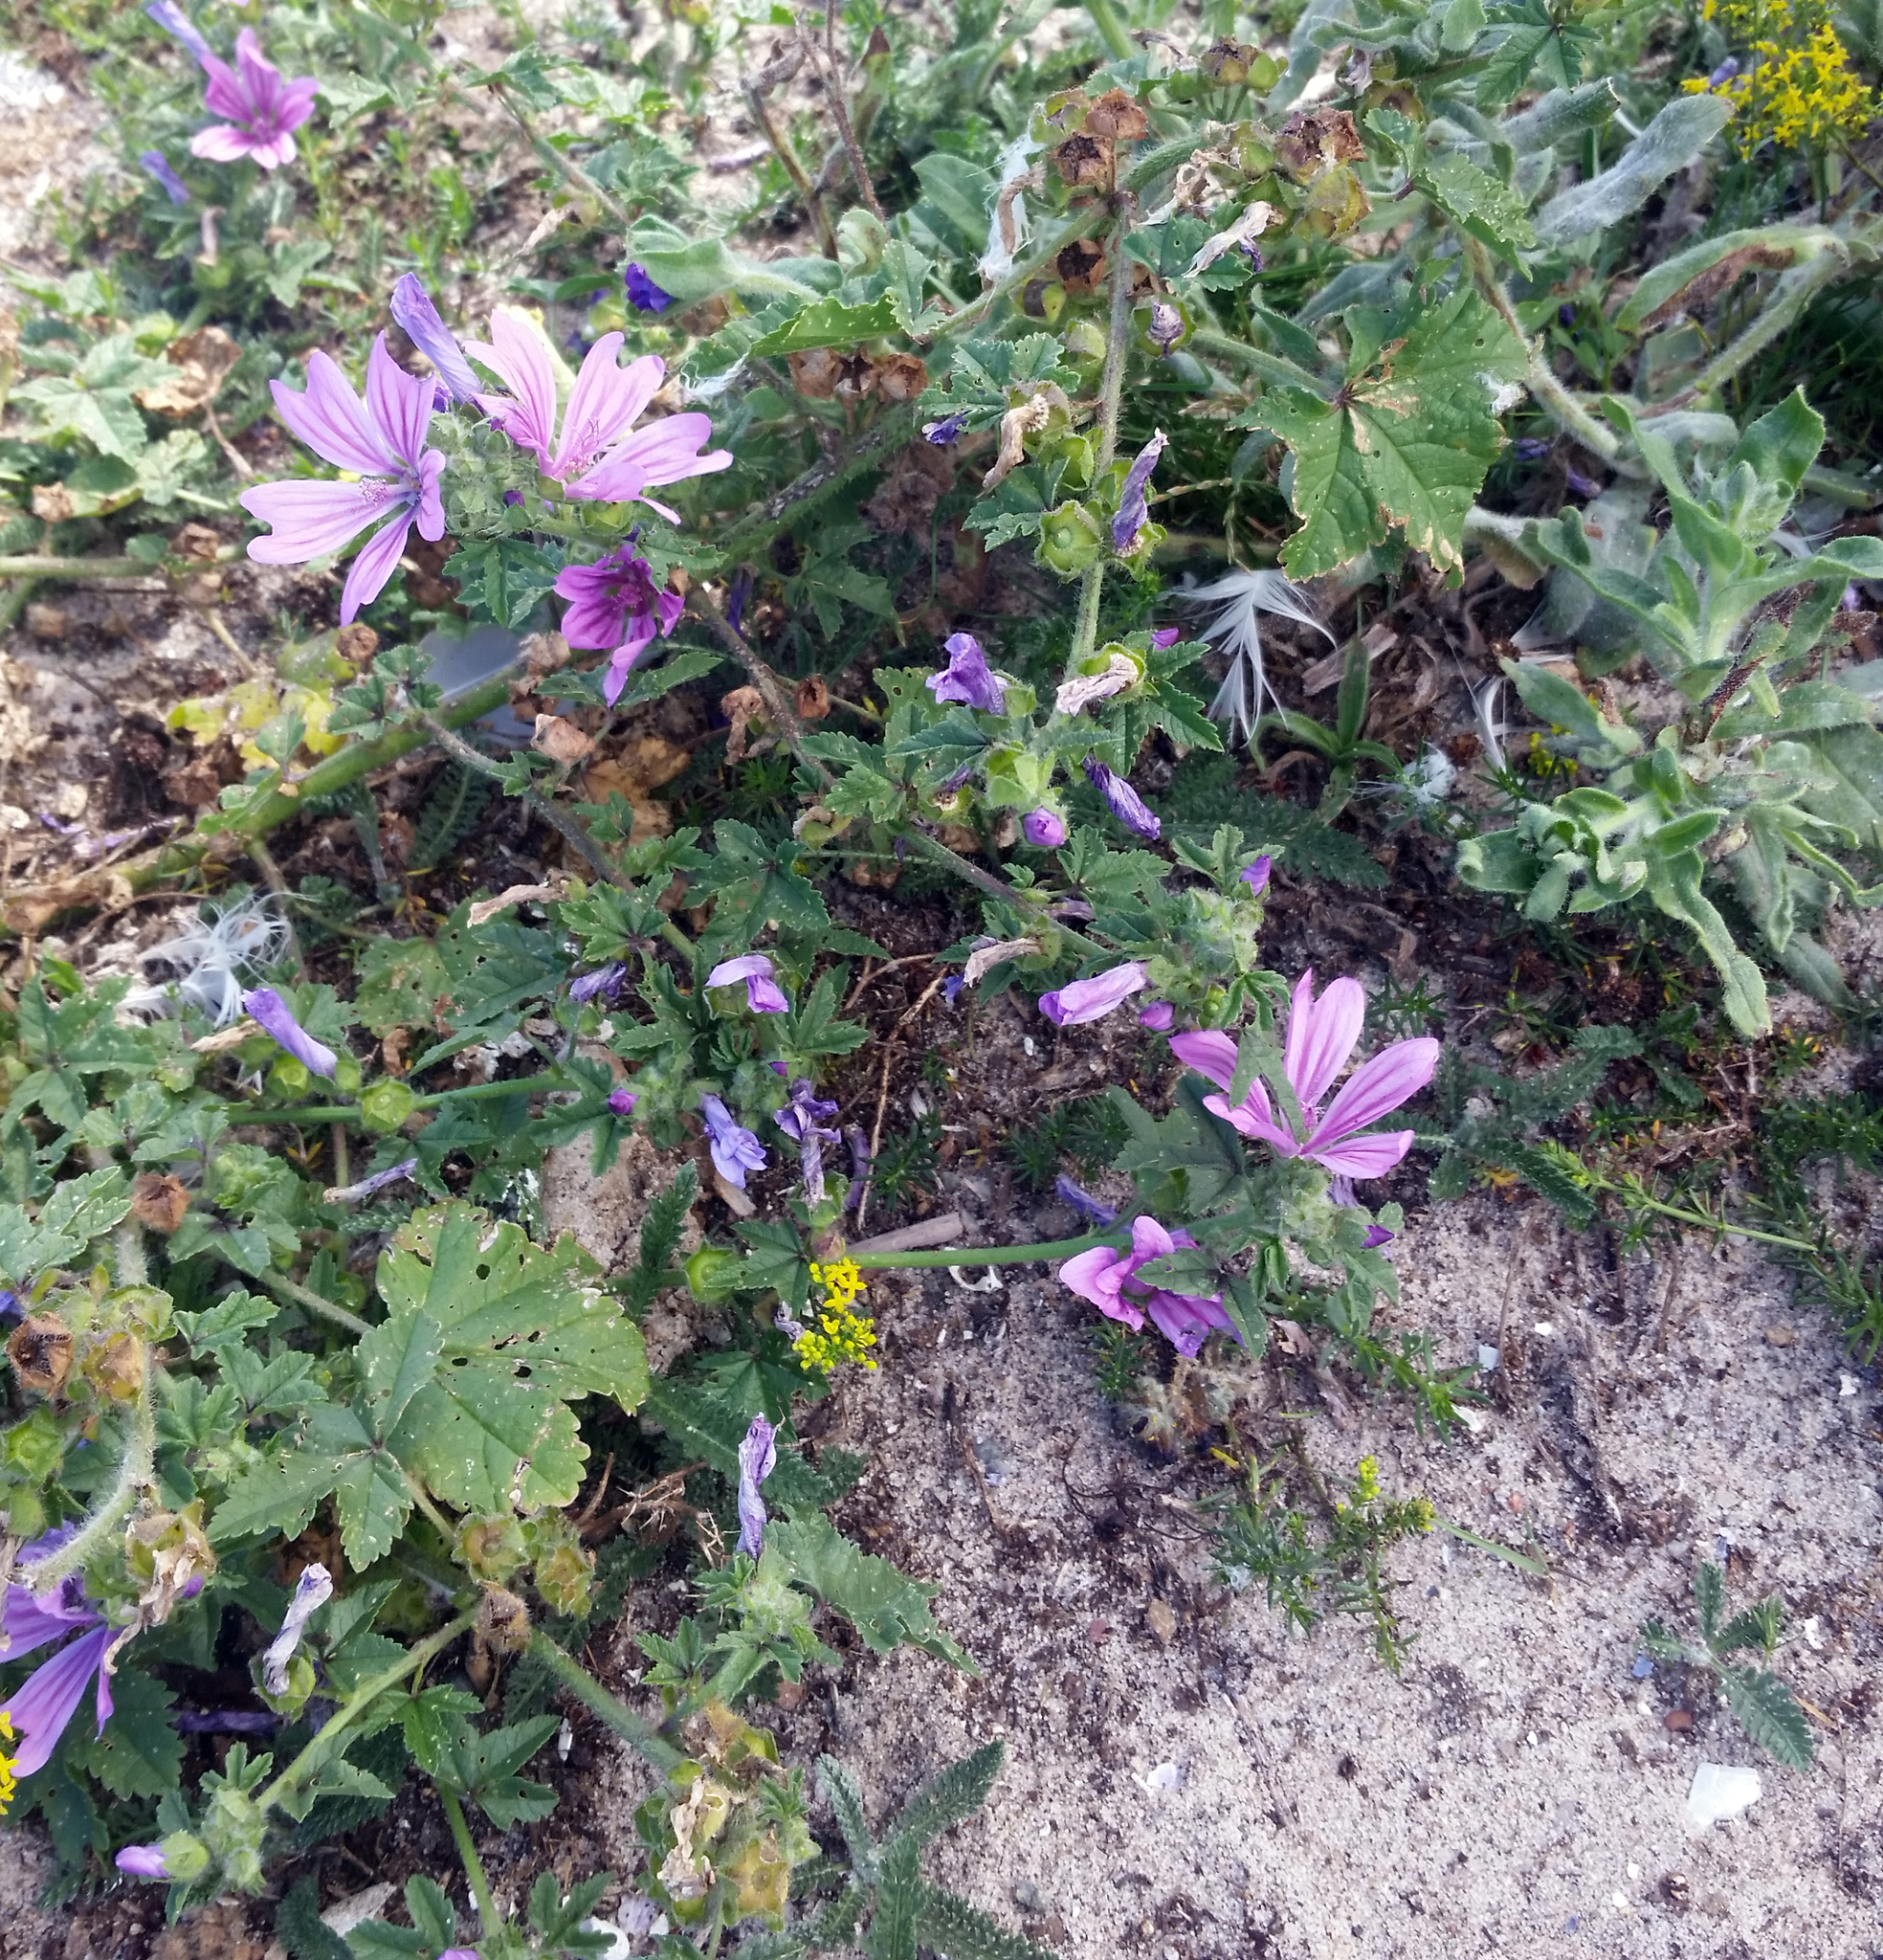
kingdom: Plantae
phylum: Tracheophyta
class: Magnoliopsida
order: Malvales
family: Malvaceae
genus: Malva
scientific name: Malva sylvestris
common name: Common mallow
